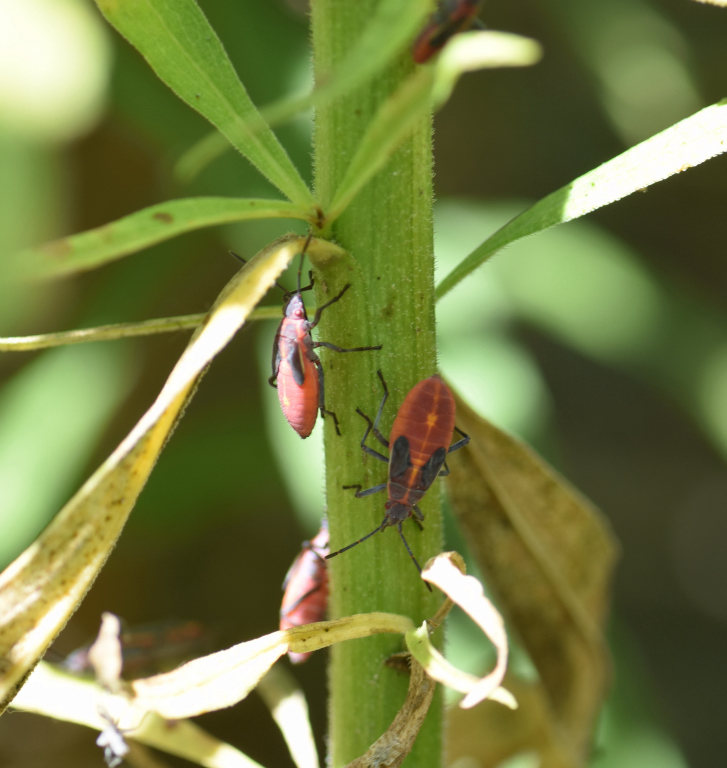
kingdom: Animalia
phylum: Arthropoda
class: Insecta
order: Hemiptera
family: Rhopalidae
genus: Boisea
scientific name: Boisea trivittata
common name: Boxelder bug
